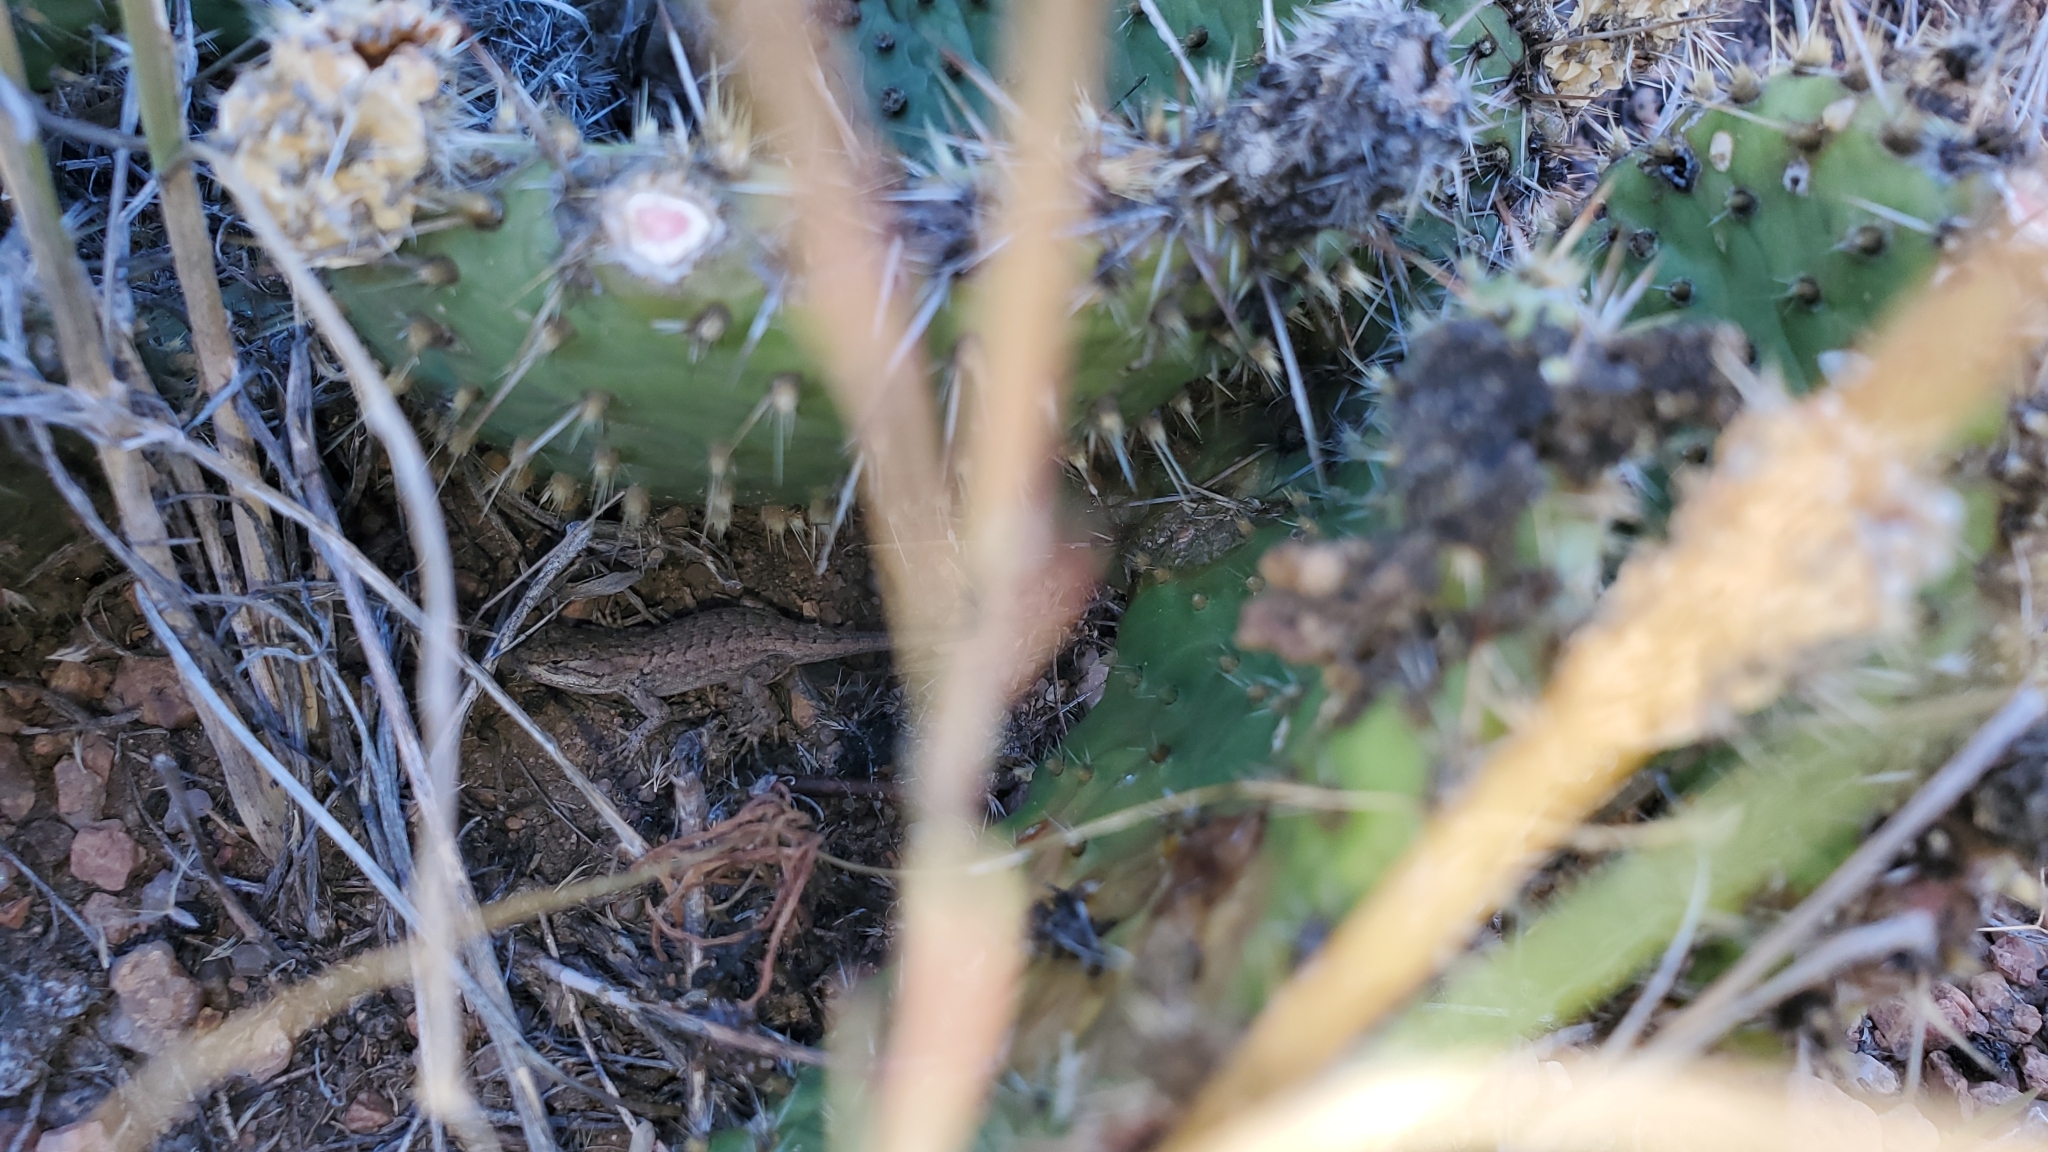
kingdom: Animalia
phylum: Chordata
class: Squamata
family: Phrynosomatidae
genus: Sceloporus
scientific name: Sceloporus consobrinus
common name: Southern prairie lizard
